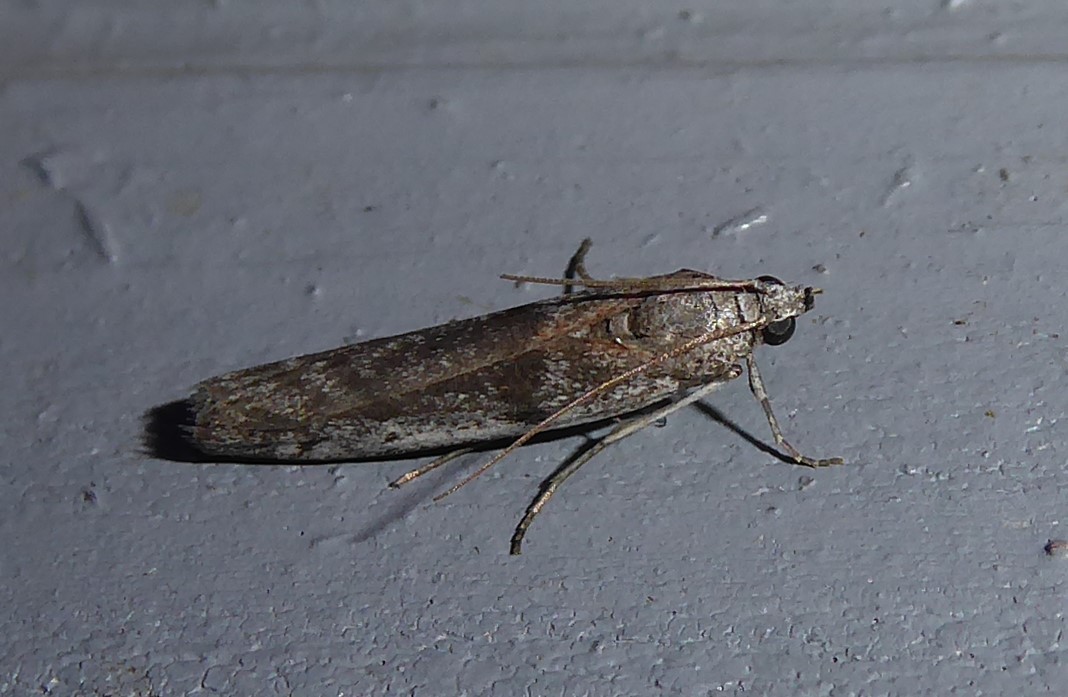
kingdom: Animalia
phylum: Arthropoda
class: Insecta
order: Lepidoptera
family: Pyralidae
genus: Patagoniodes
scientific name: Patagoniodes farinaria
